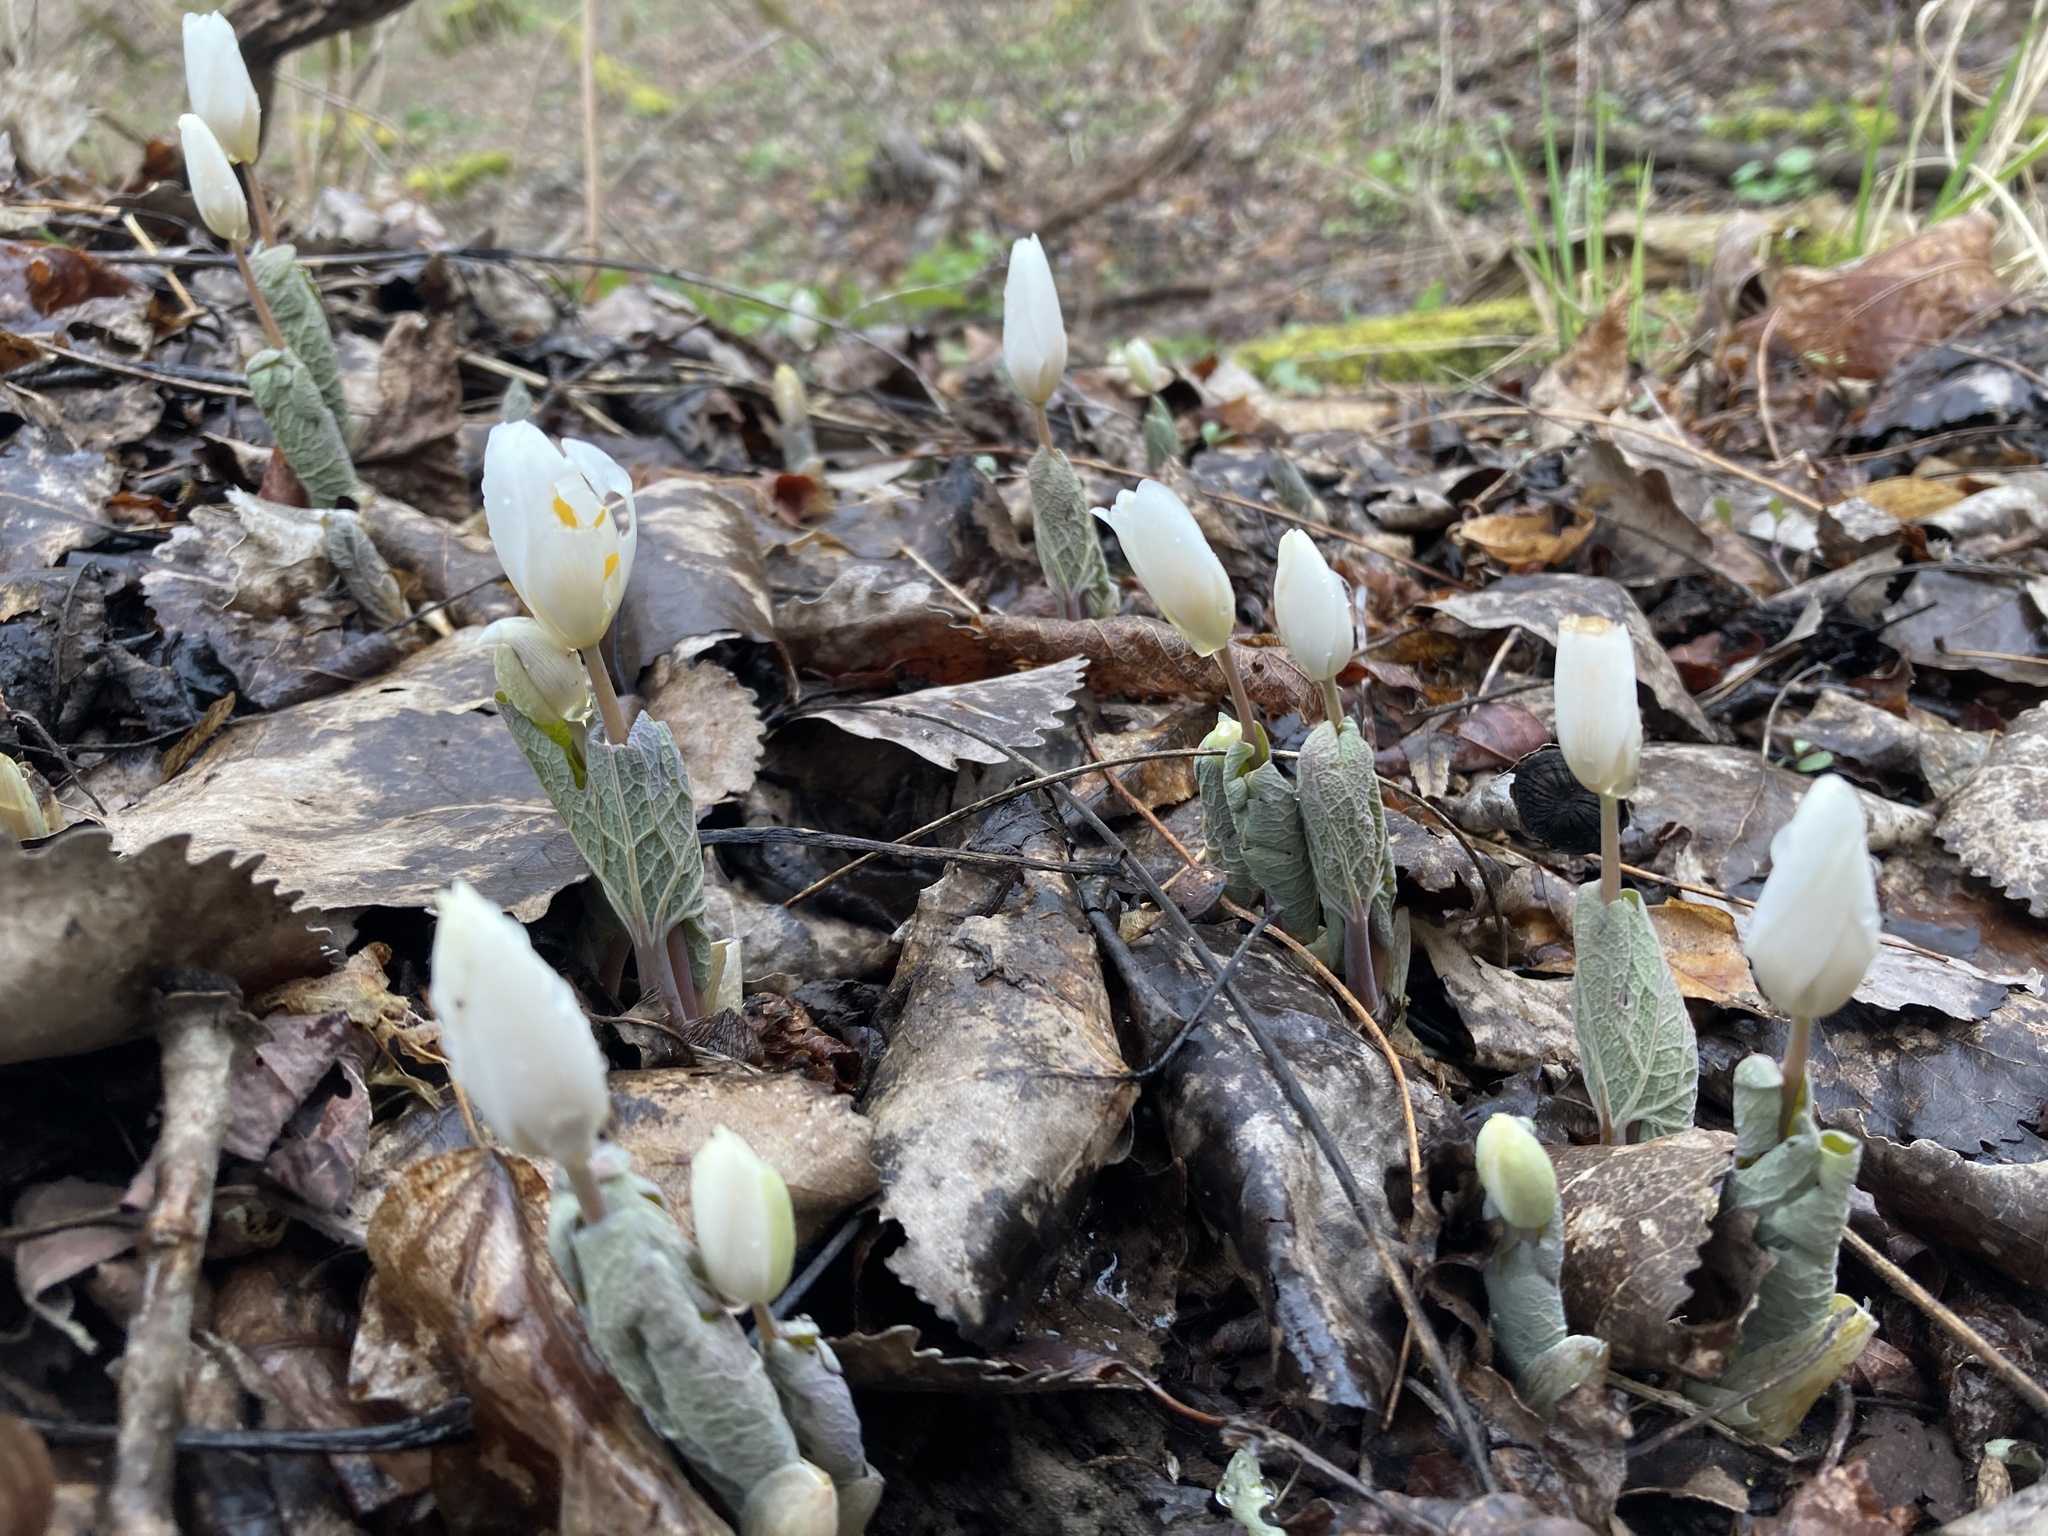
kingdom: Plantae
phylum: Tracheophyta
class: Magnoliopsida
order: Ranunculales
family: Papaveraceae
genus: Sanguinaria
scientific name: Sanguinaria canadensis
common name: Bloodroot
